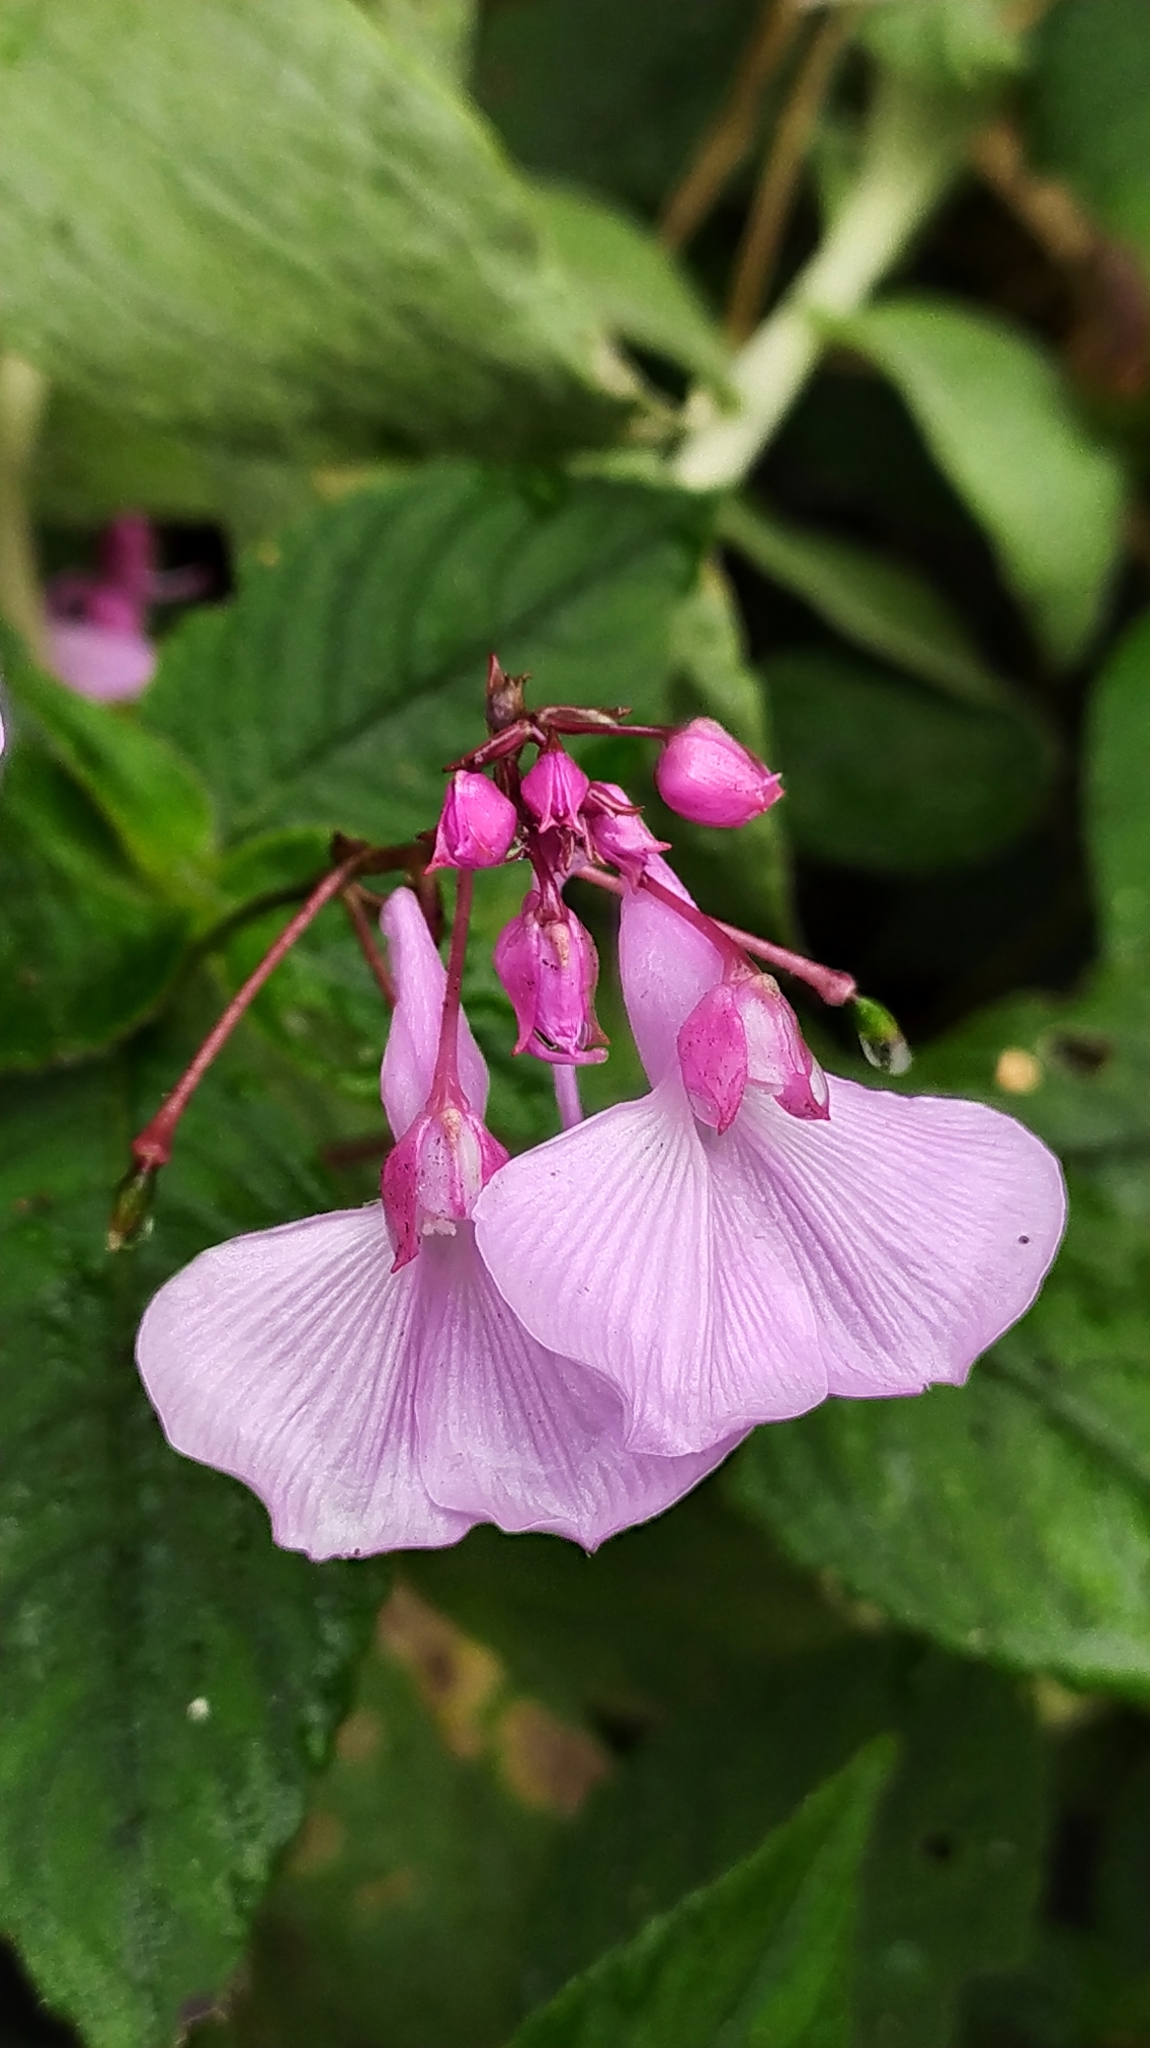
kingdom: Plantae
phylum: Tracheophyta
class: Magnoliopsida
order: Ericales
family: Balsaminaceae
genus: Impatiens
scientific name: Impatiens maculata
